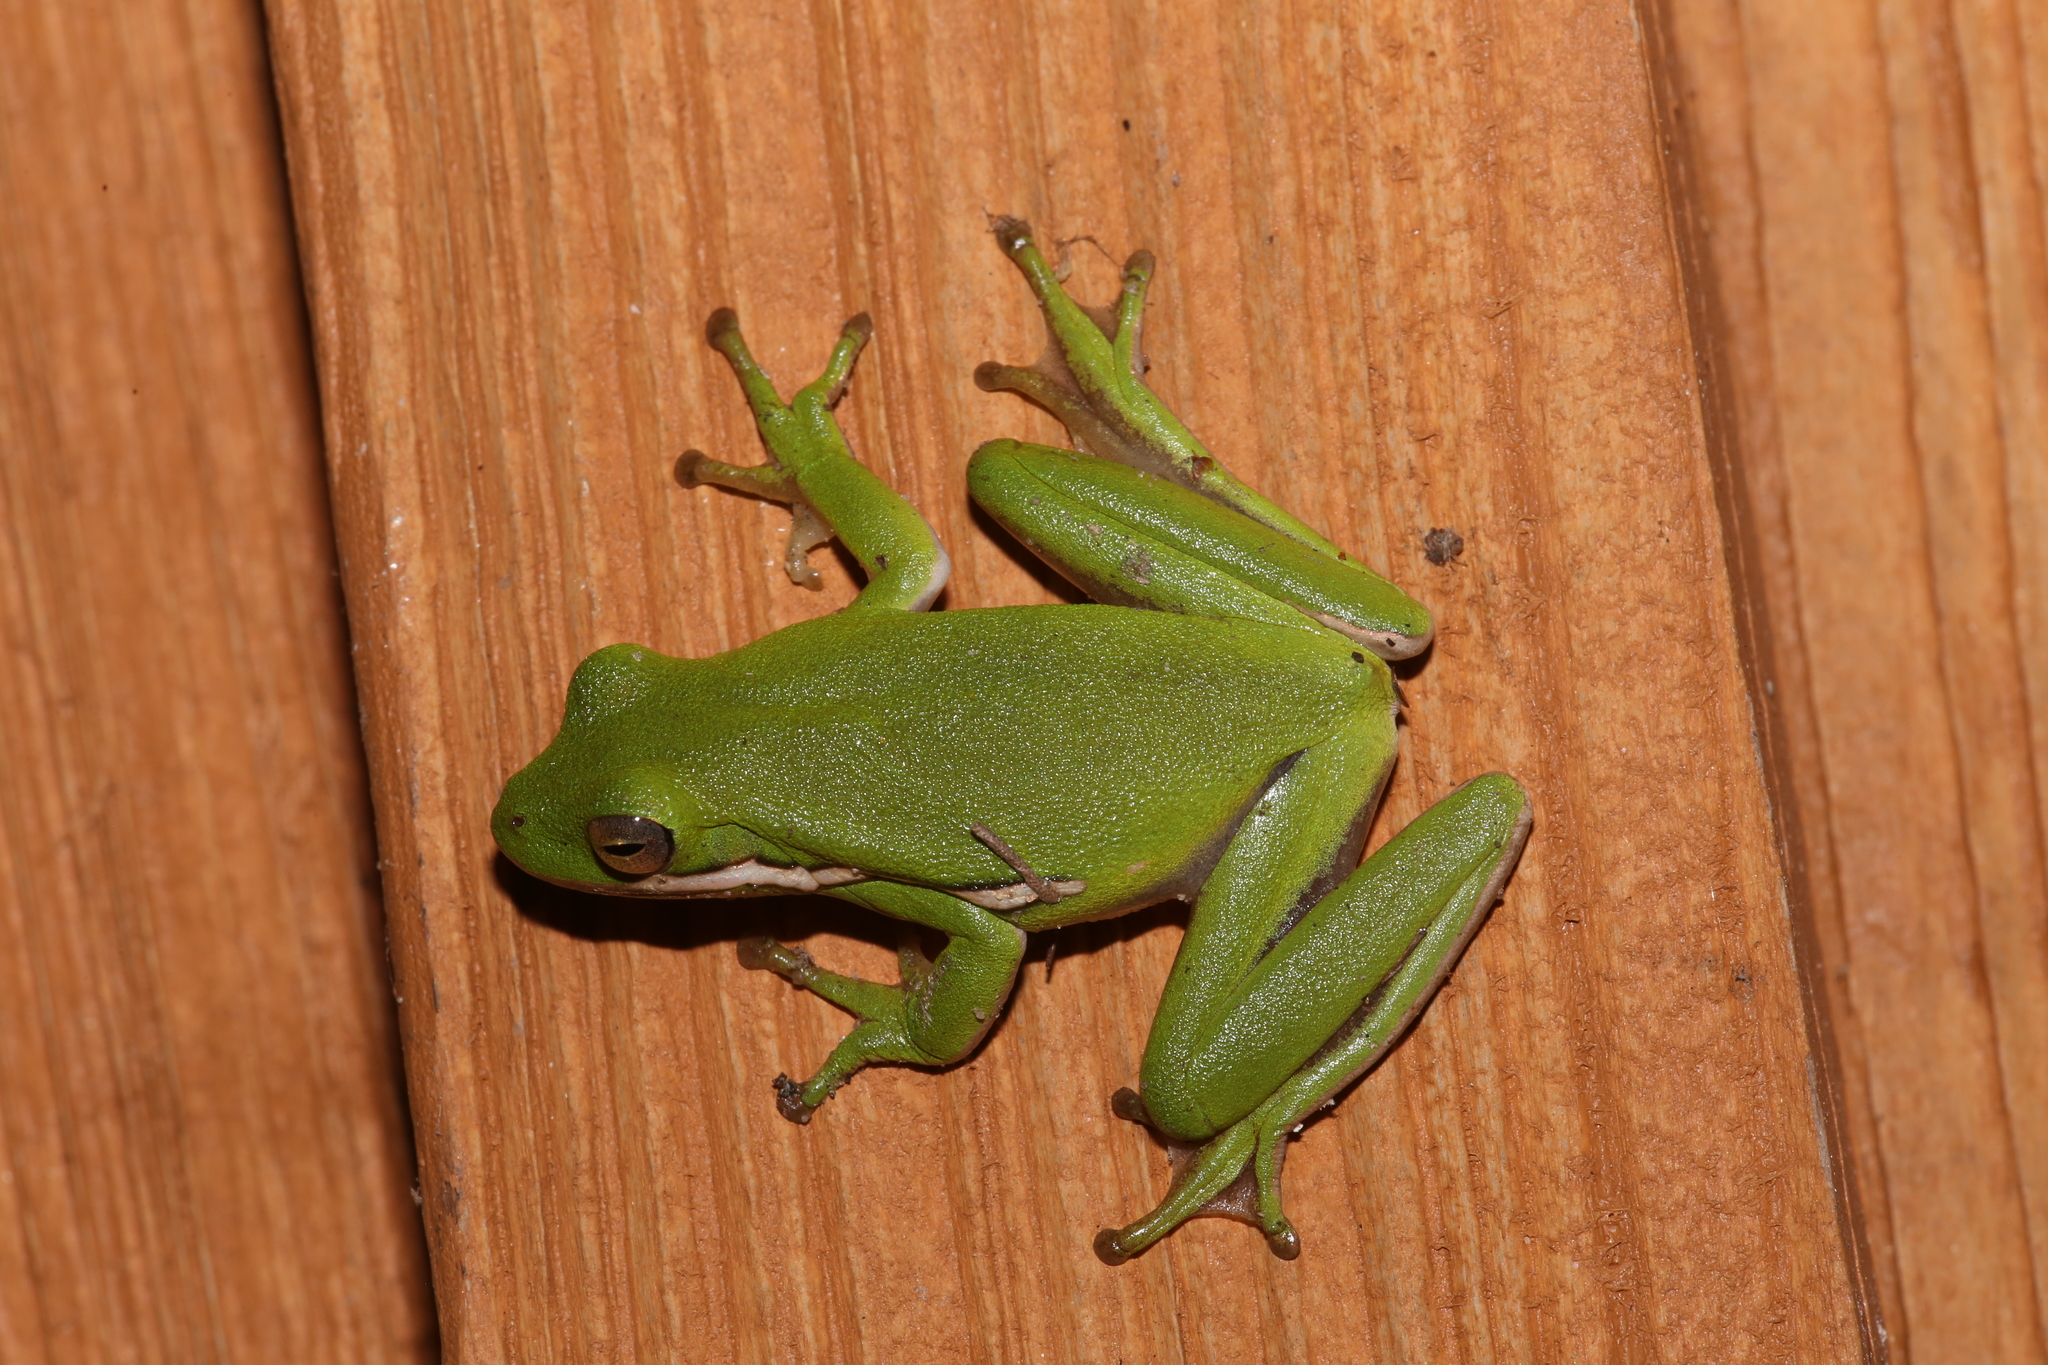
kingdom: Animalia
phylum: Chordata
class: Amphibia
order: Anura
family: Hylidae
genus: Dryophytes
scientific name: Dryophytes cinereus
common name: Green treefrog
